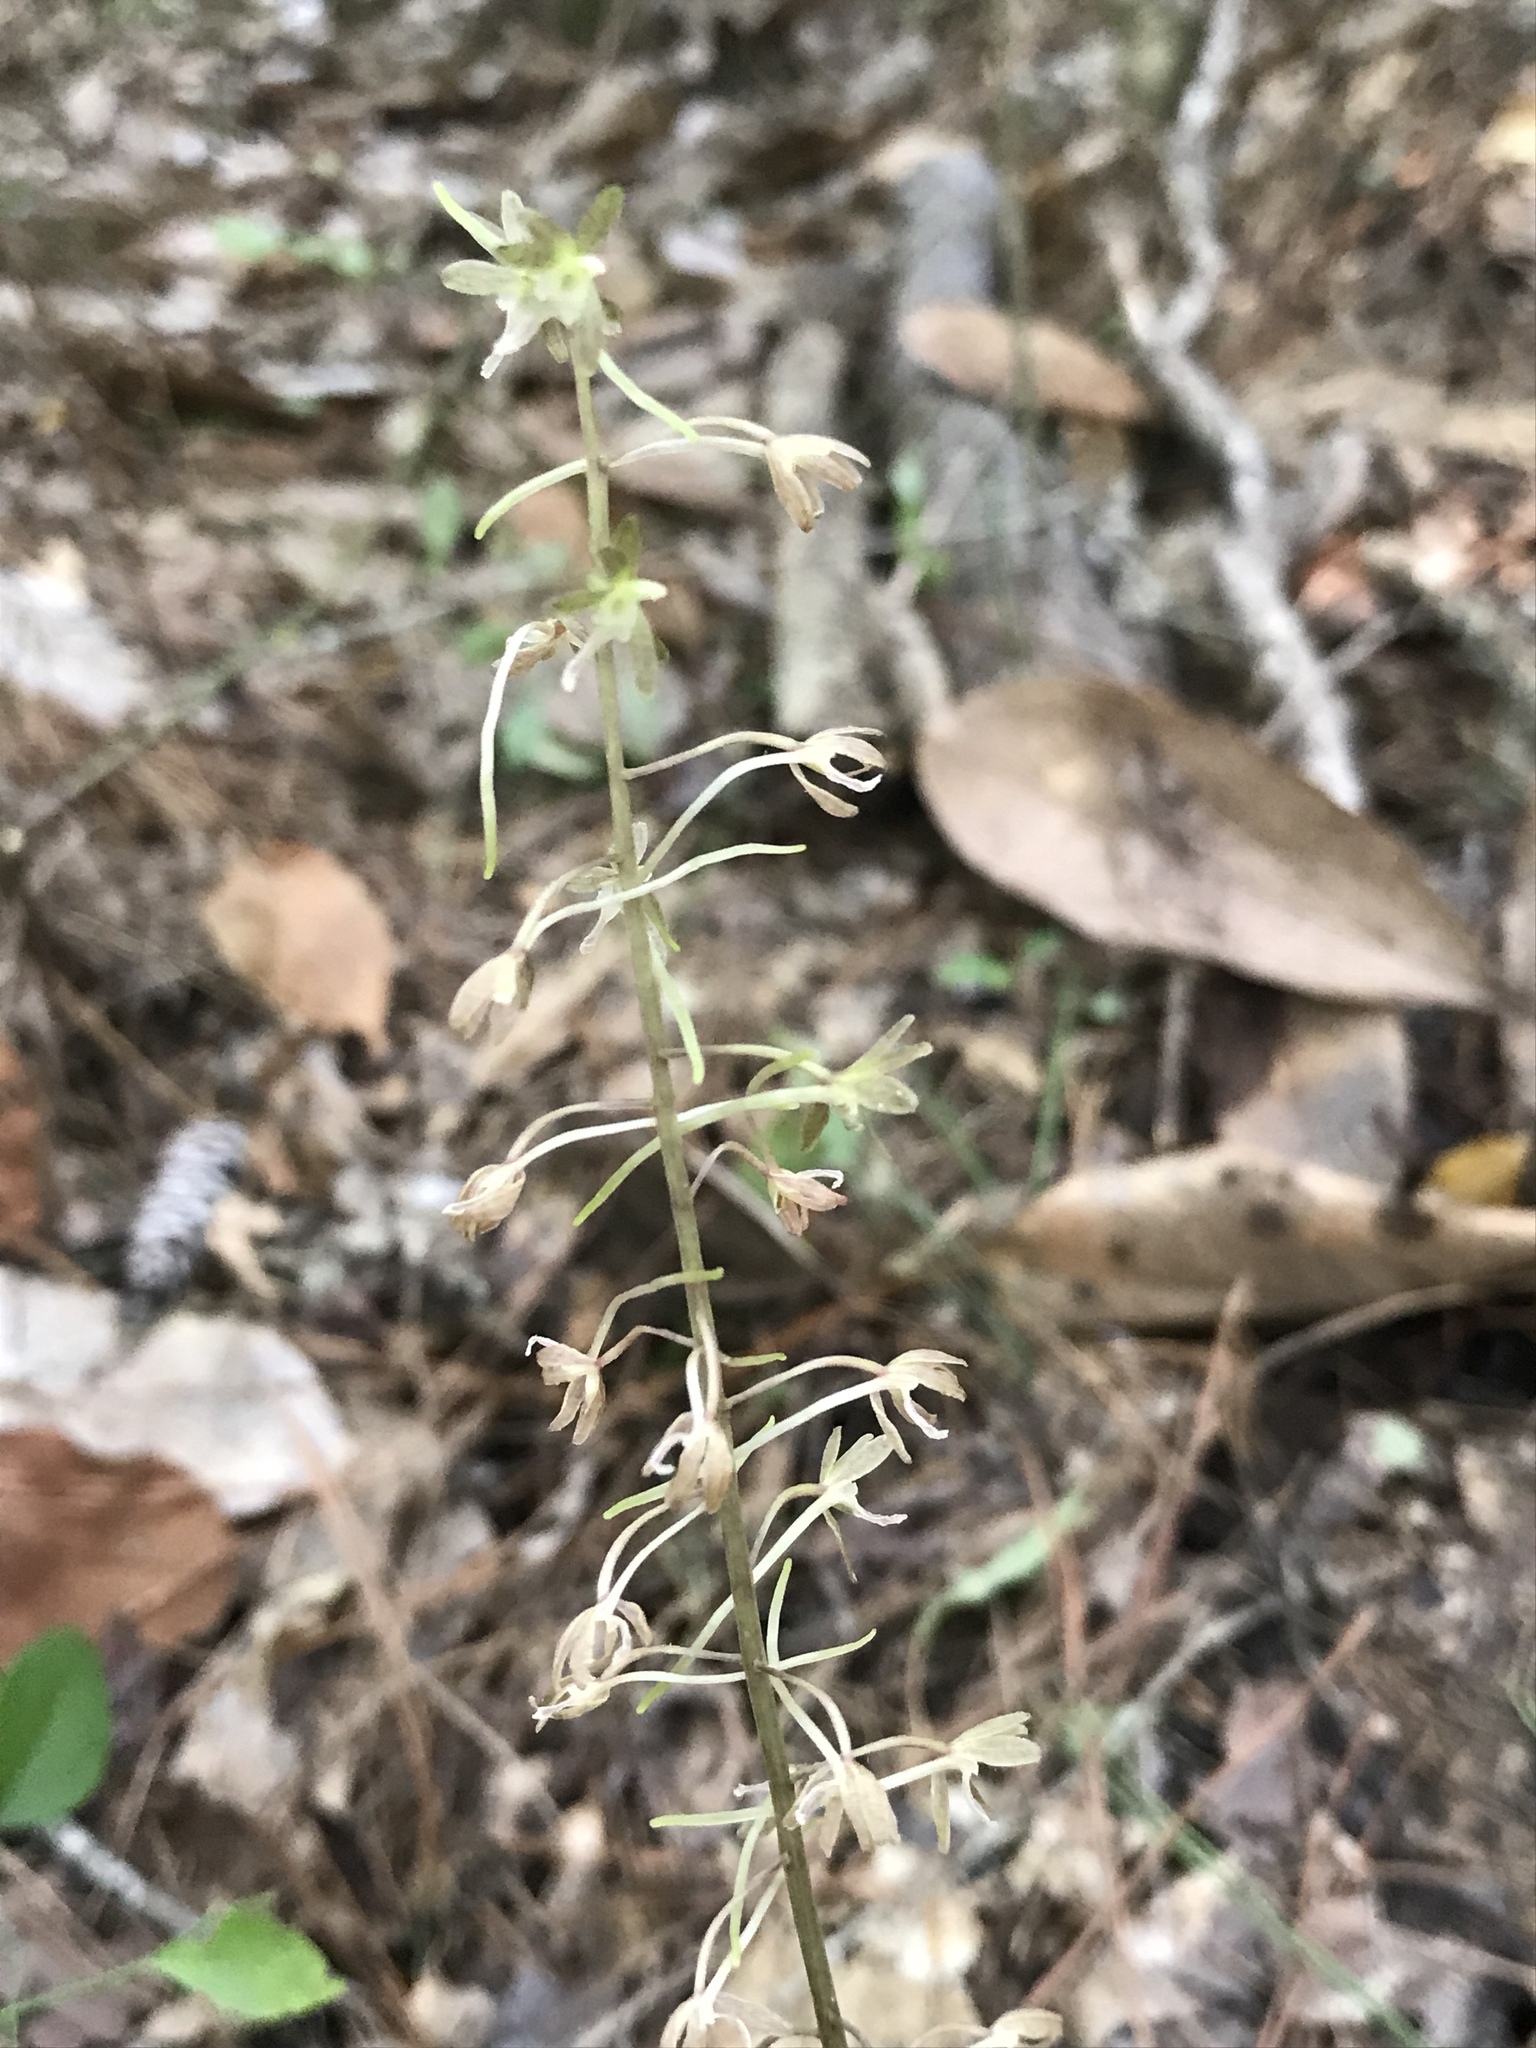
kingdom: Plantae
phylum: Tracheophyta
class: Liliopsida
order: Asparagales
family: Orchidaceae
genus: Tipularia
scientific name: Tipularia discolor
